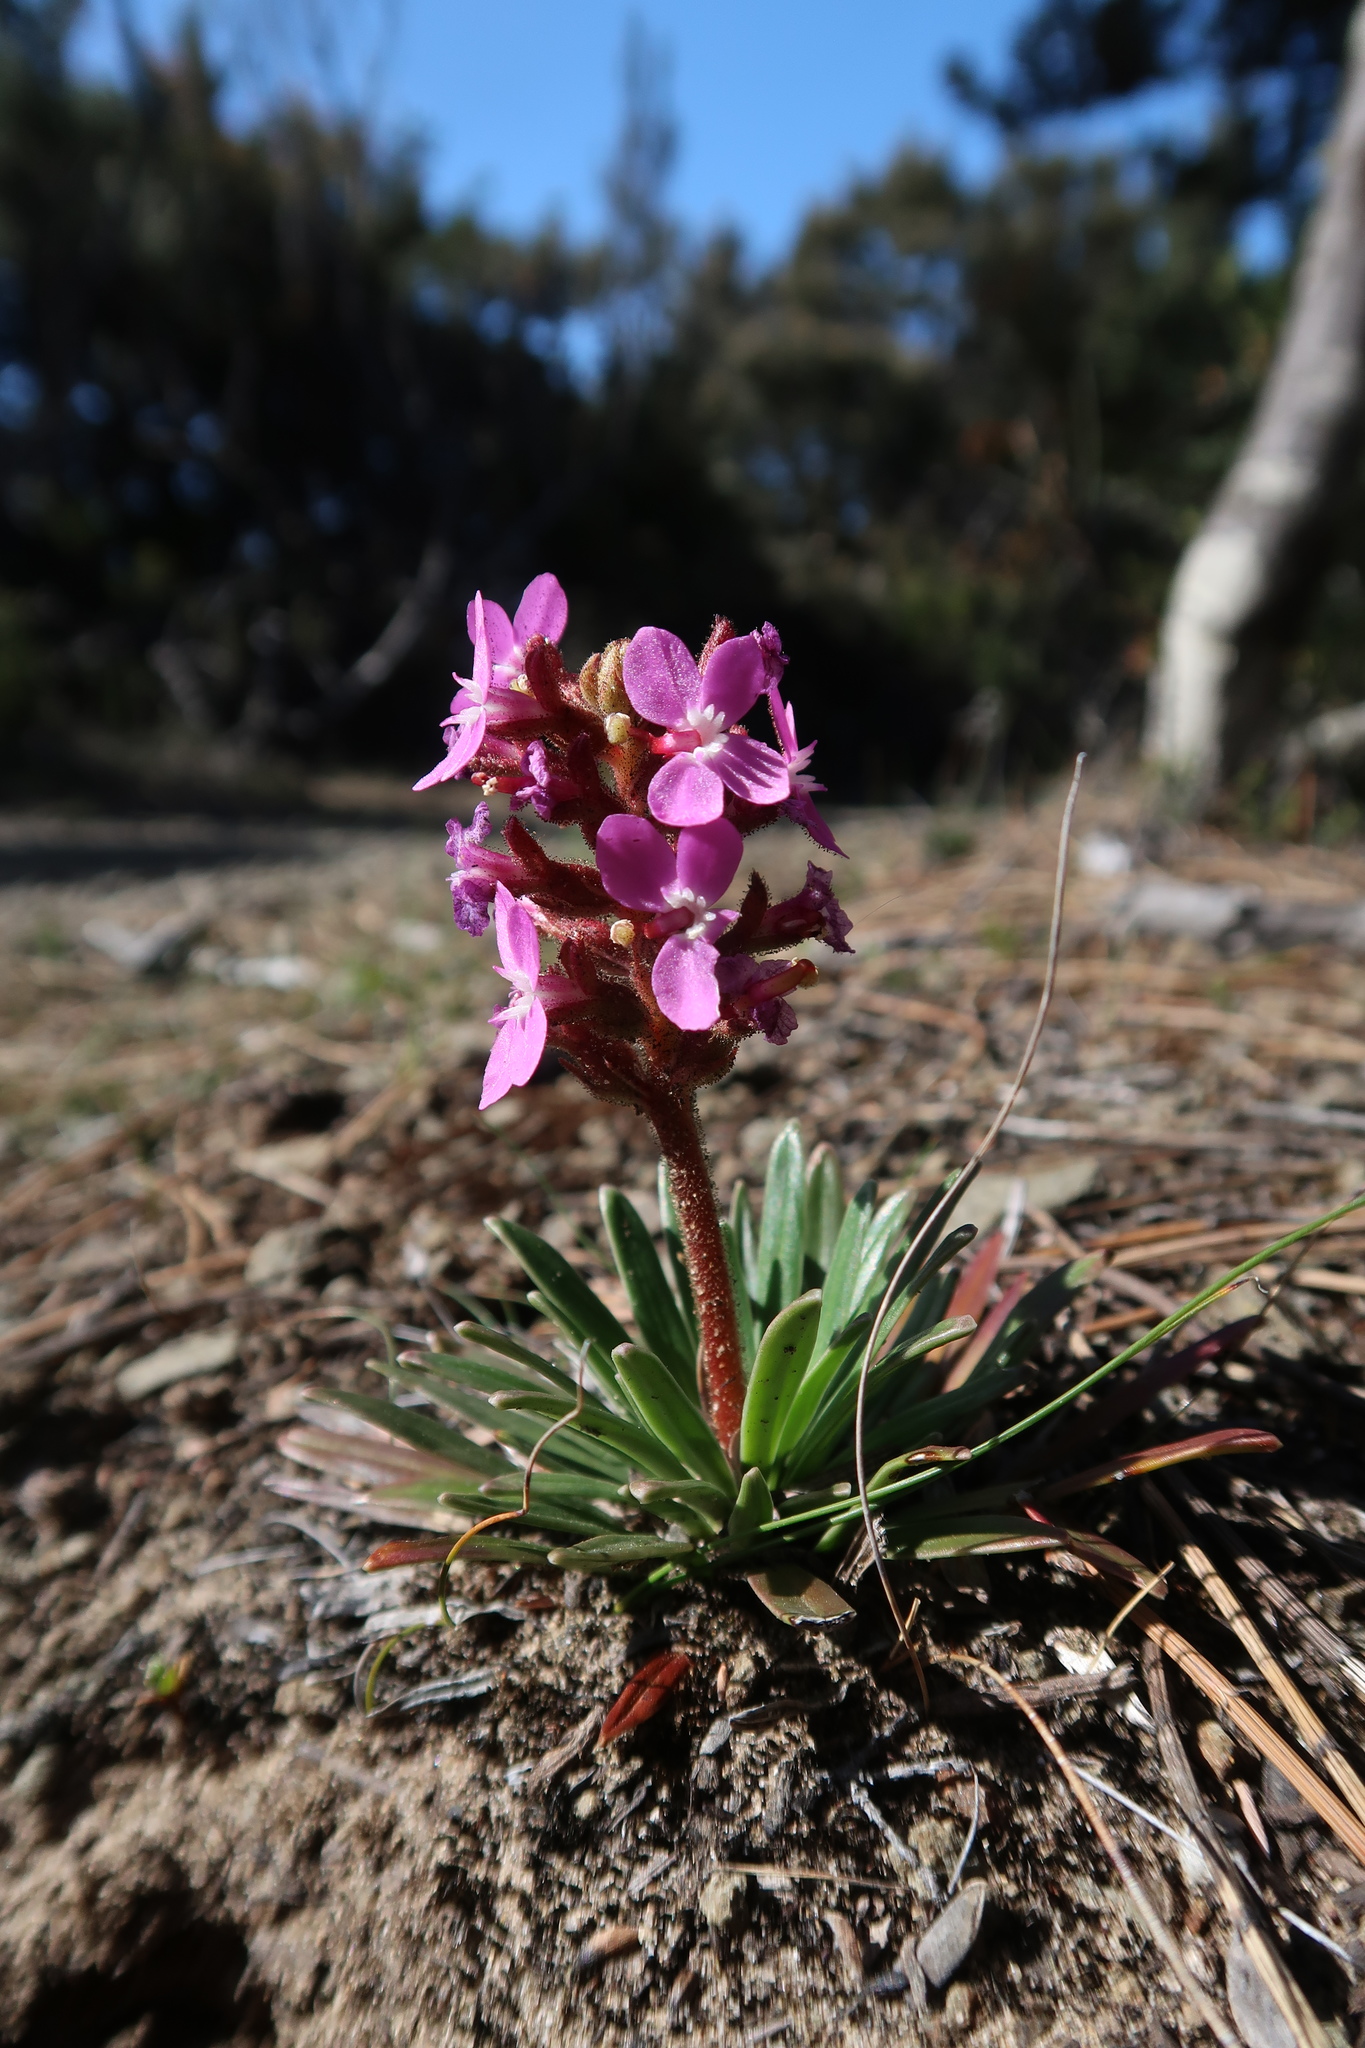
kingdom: Plantae
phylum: Tracheophyta
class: Magnoliopsida
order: Asterales
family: Stylidiaceae
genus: Stylidium
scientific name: Stylidium armeria
